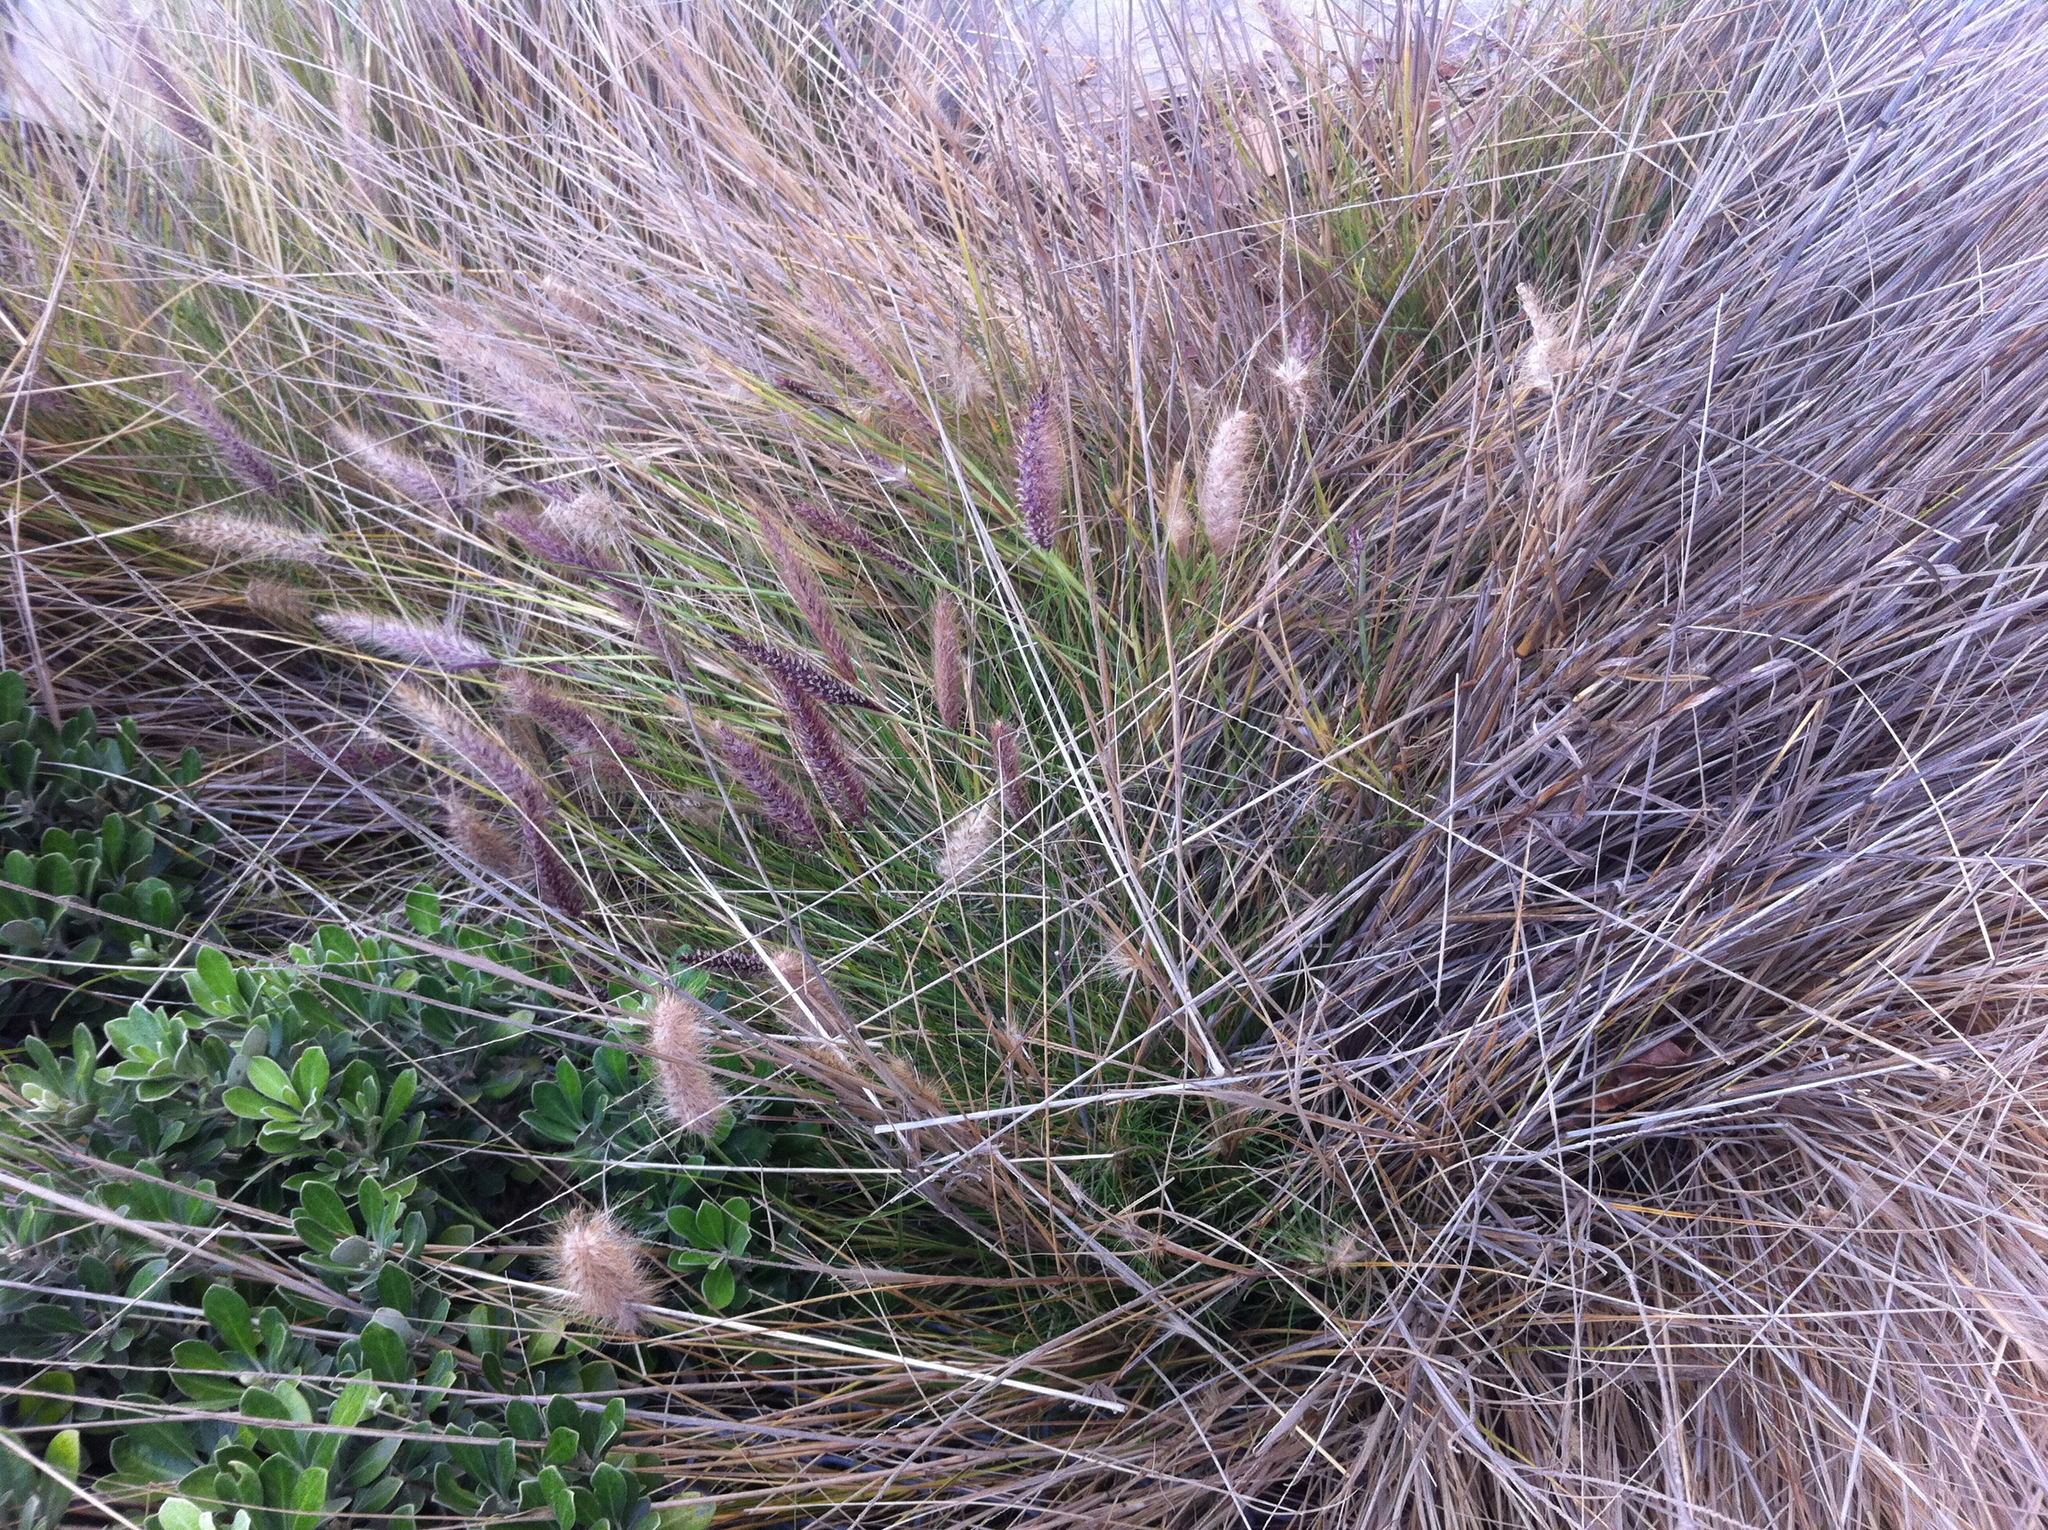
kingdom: Plantae
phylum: Tracheophyta
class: Liliopsida
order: Poales
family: Poaceae
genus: Cenchrus
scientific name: Cenchrus setaceus
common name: Crimson fountaingrass
